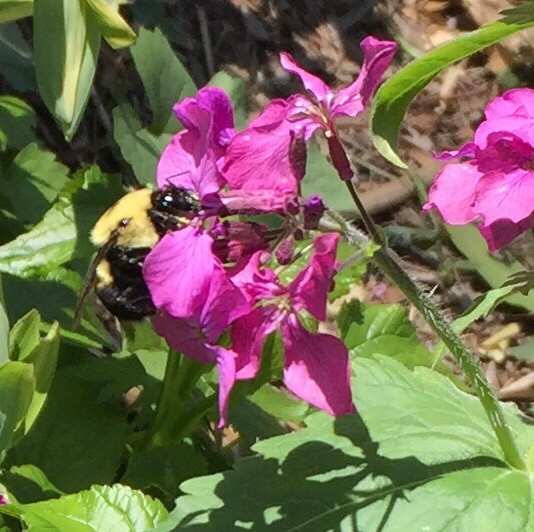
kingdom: Animalia
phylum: Arthropoda
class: Insecta
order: Hymenoptera
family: Apidae
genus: Bombus
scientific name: Bombus griseocollis
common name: Brown-belted bumble bee
